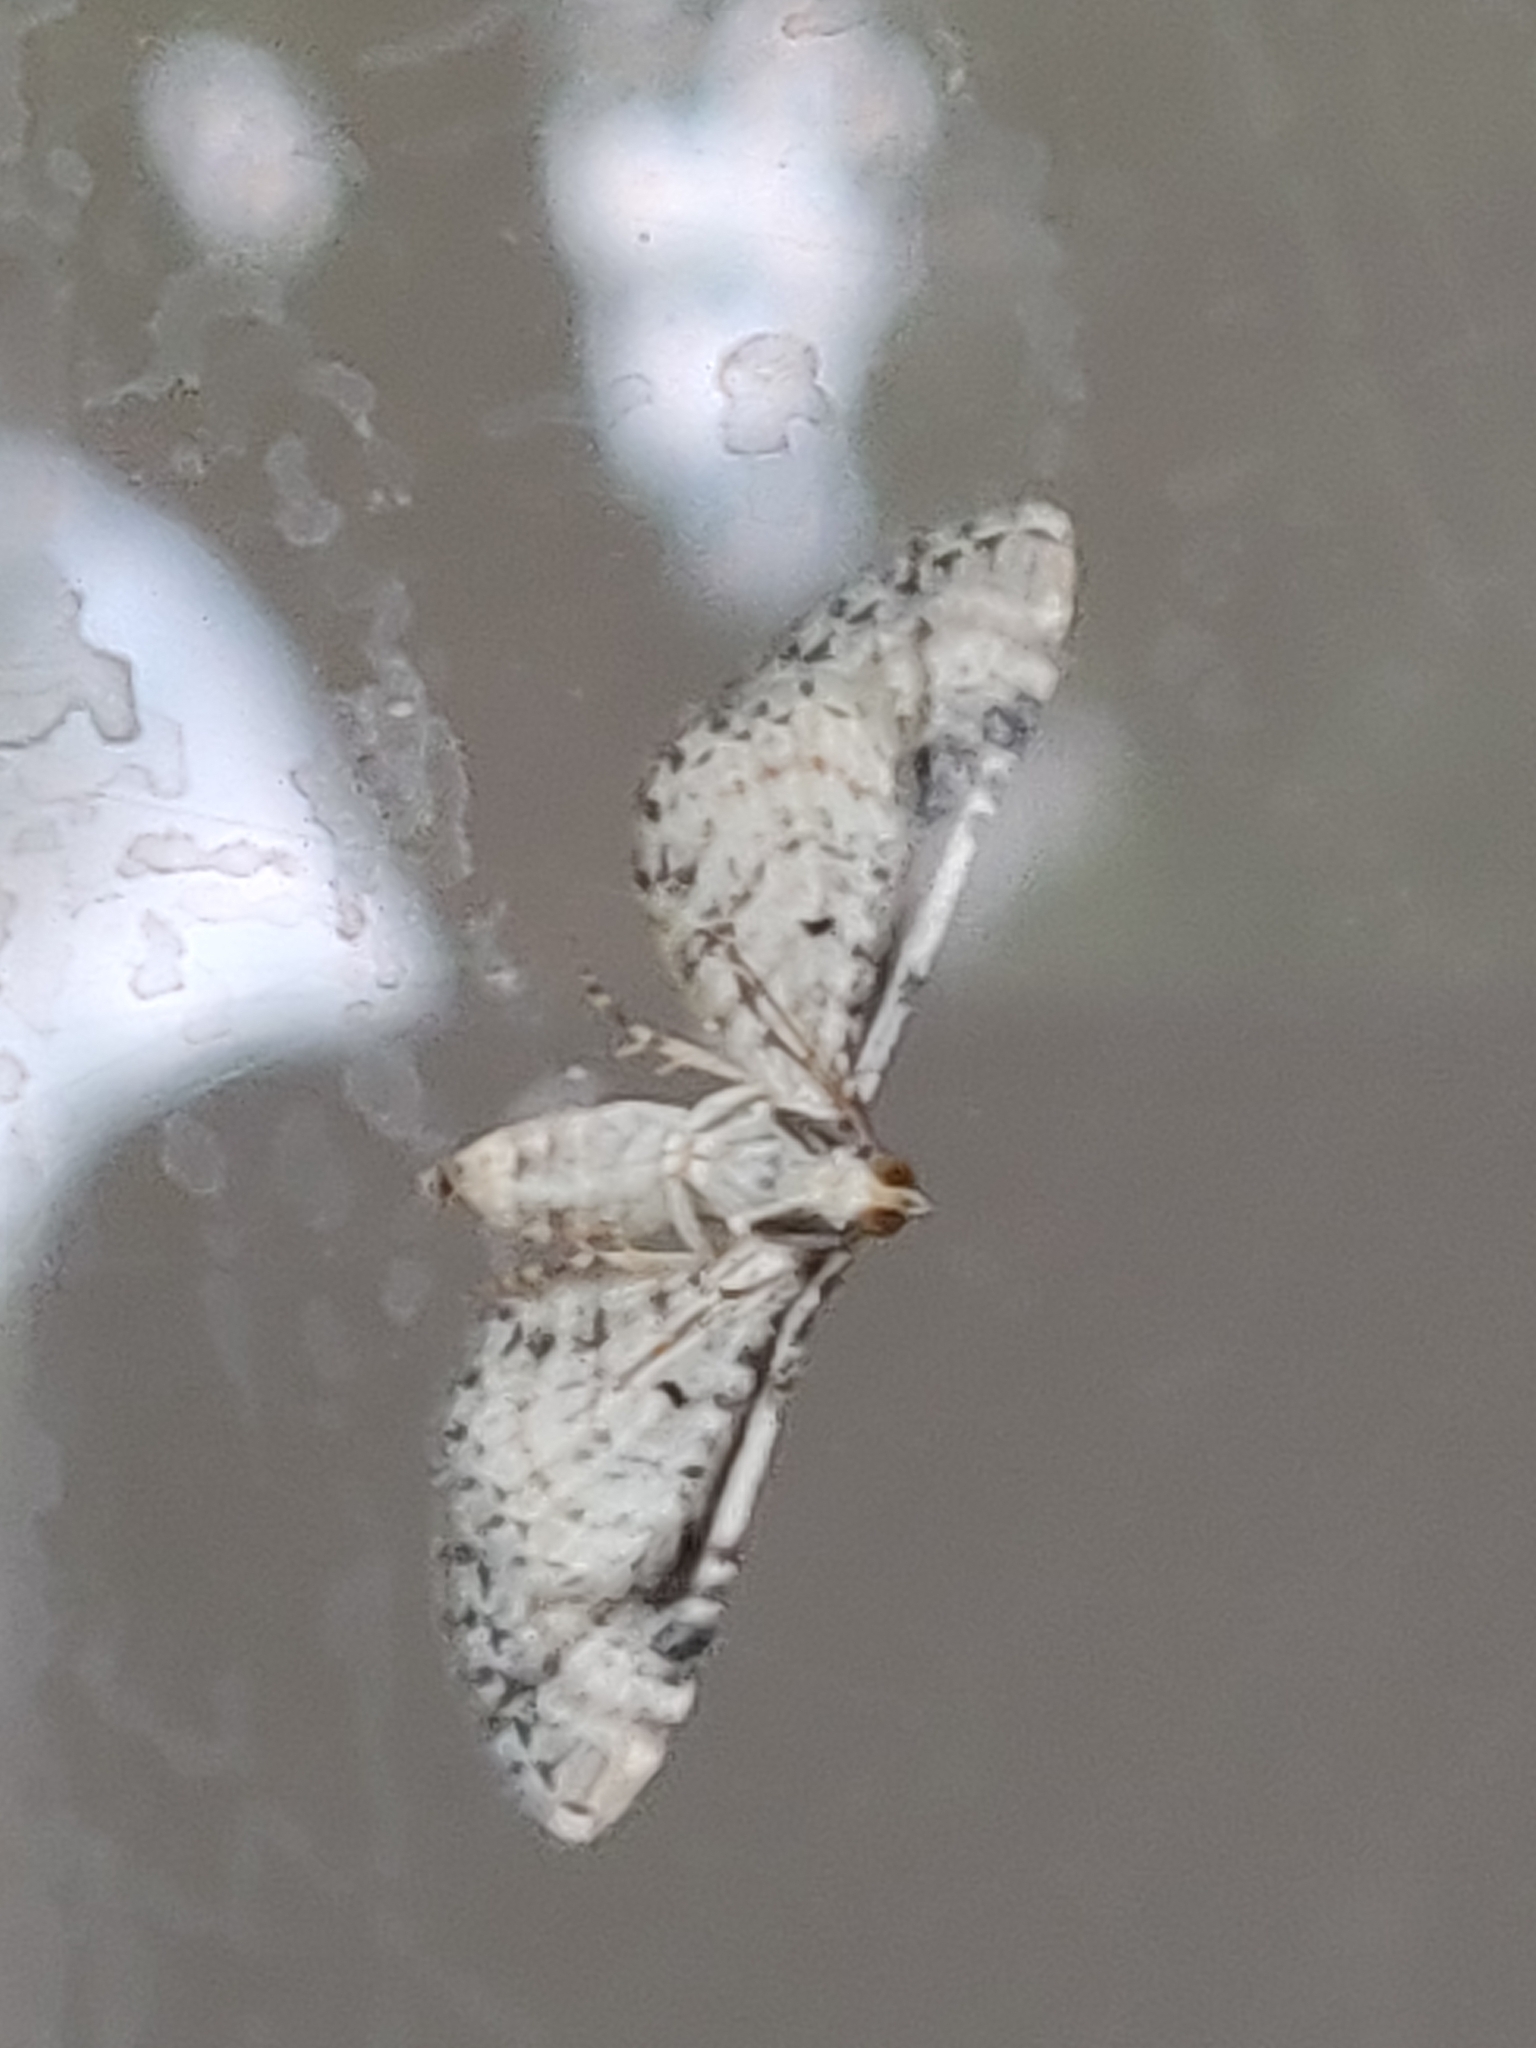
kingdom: Animalia
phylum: Arthropoda
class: Insecta
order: Lepidoptera
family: Geometridae
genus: Eupithecia
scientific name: Eupithecia centaureata
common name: Lime-speck pug
